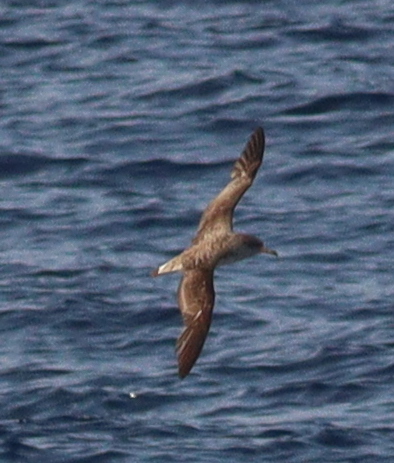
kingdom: Animalia
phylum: Chordata
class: Aves
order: Procellariiformes
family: Procellariidae
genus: Calonectris
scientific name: Calonectris diomedea
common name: Cory's shearwater
